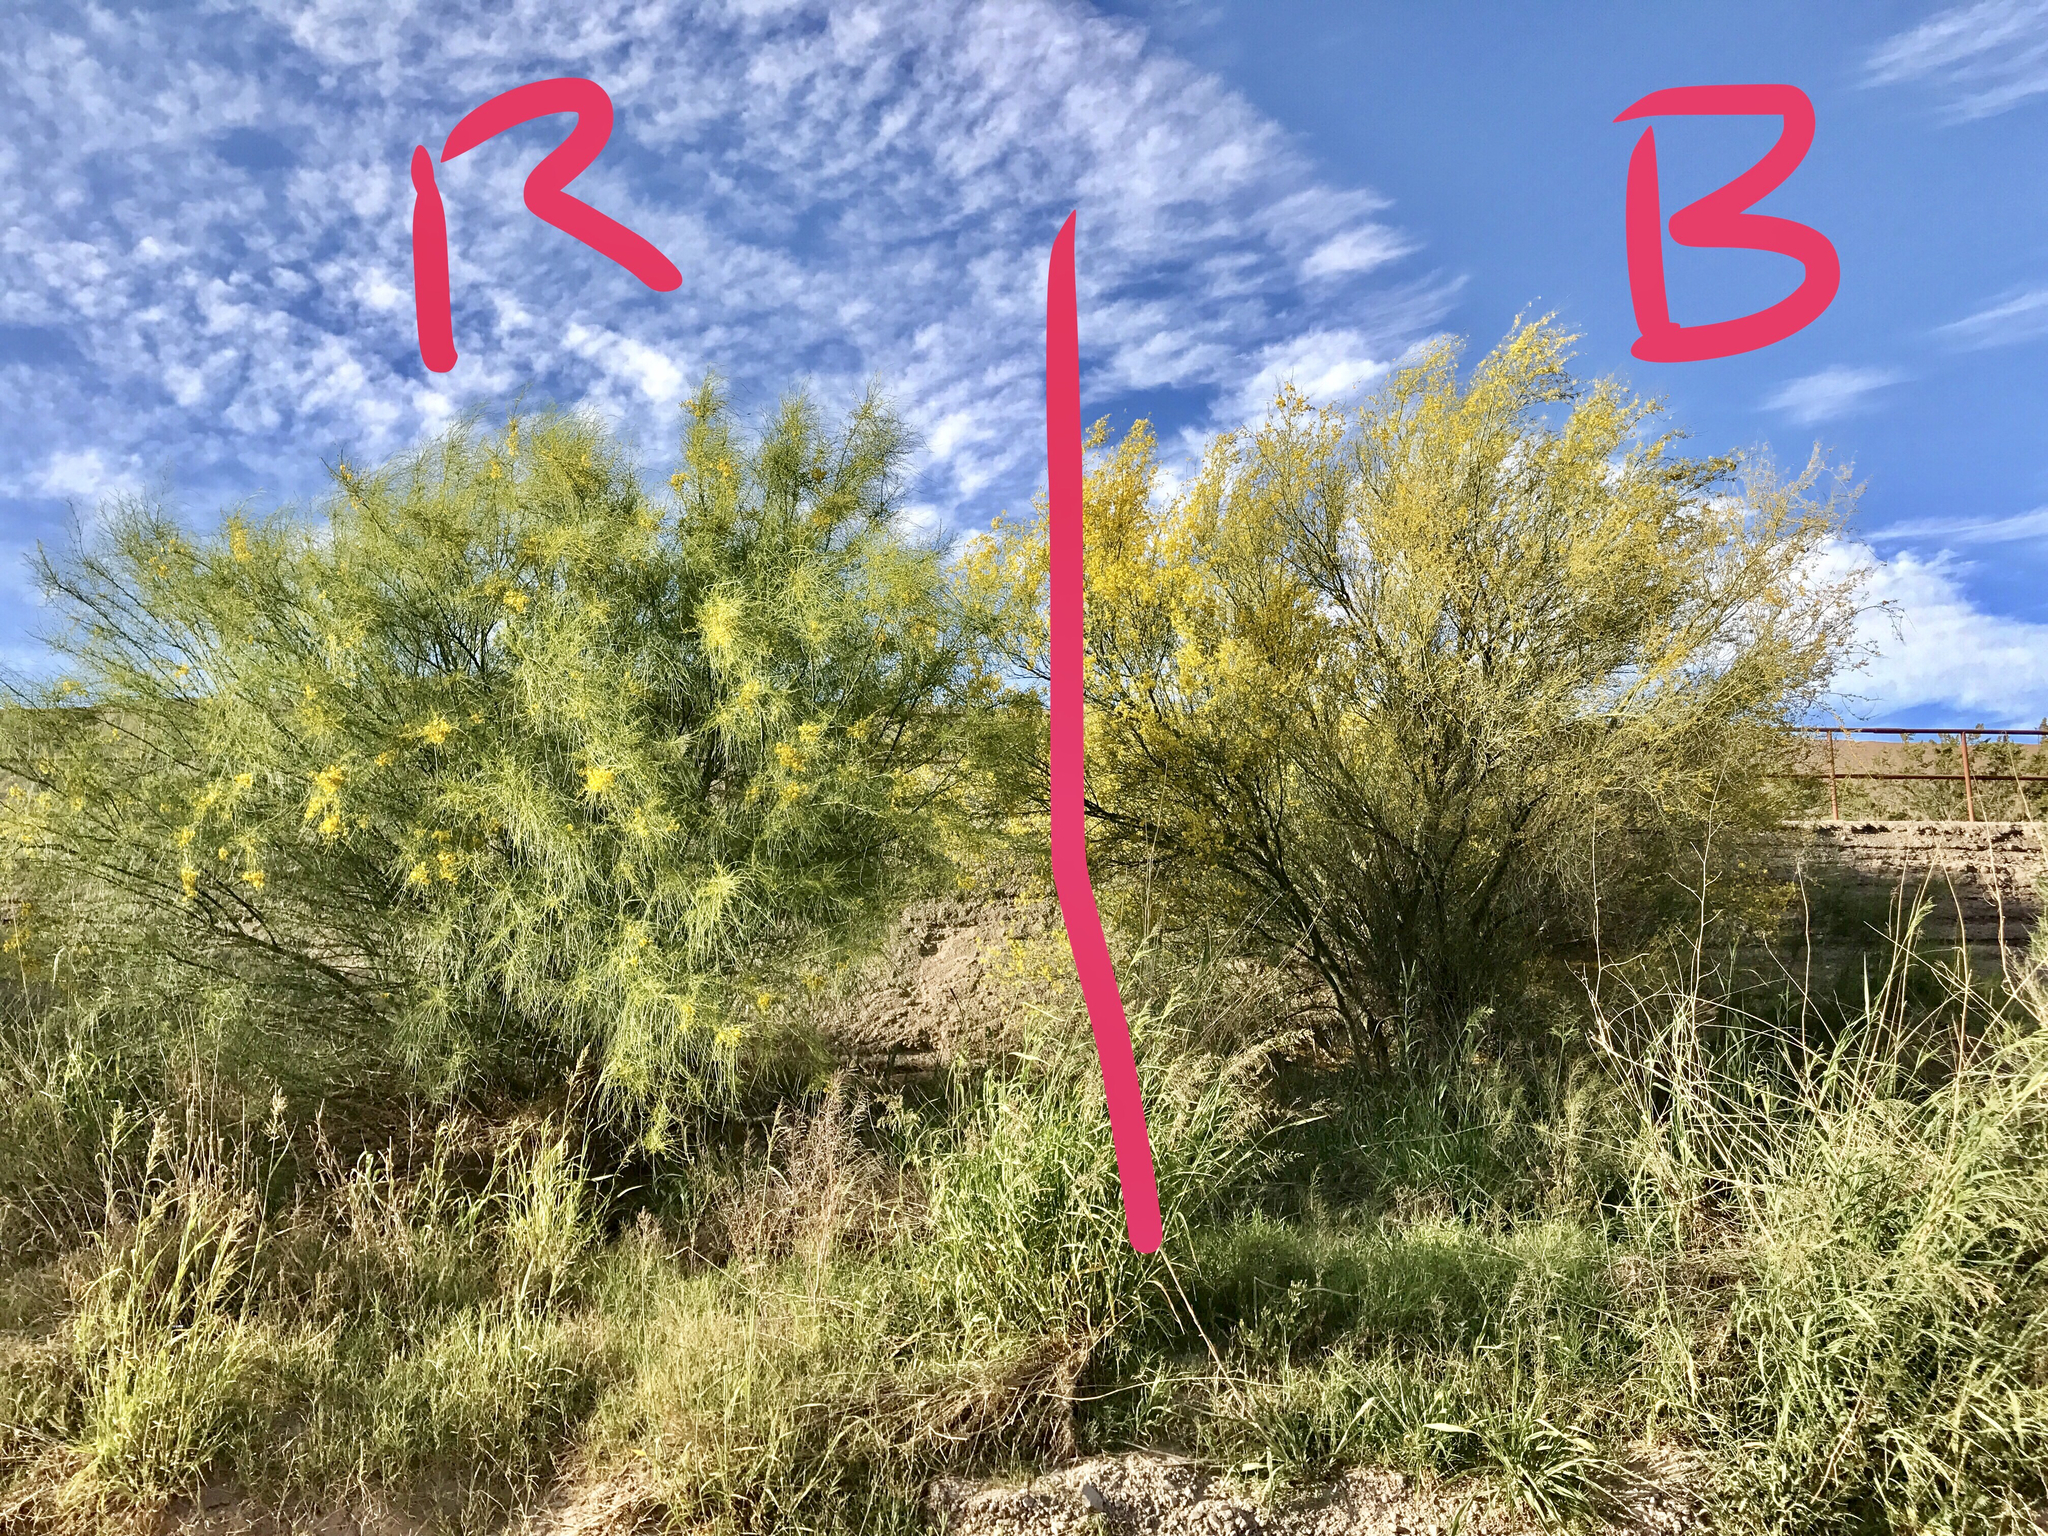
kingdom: Plantae
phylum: Tracheophyta
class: Magnoliopsida
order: Fabales
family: Fabaceae
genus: Parkinsonia
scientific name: Parkinsonia aculeata
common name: Jerusalem thorn
